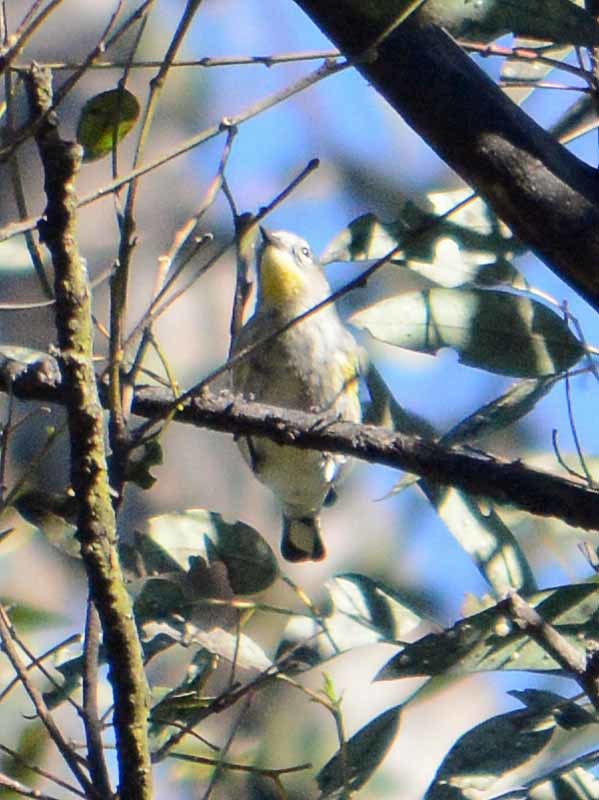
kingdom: Animalia
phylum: Chordata
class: Aves
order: Passeriformes
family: Parulidae
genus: Setophaga
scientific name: Setophaga auduboni
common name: Audubon's warbler
